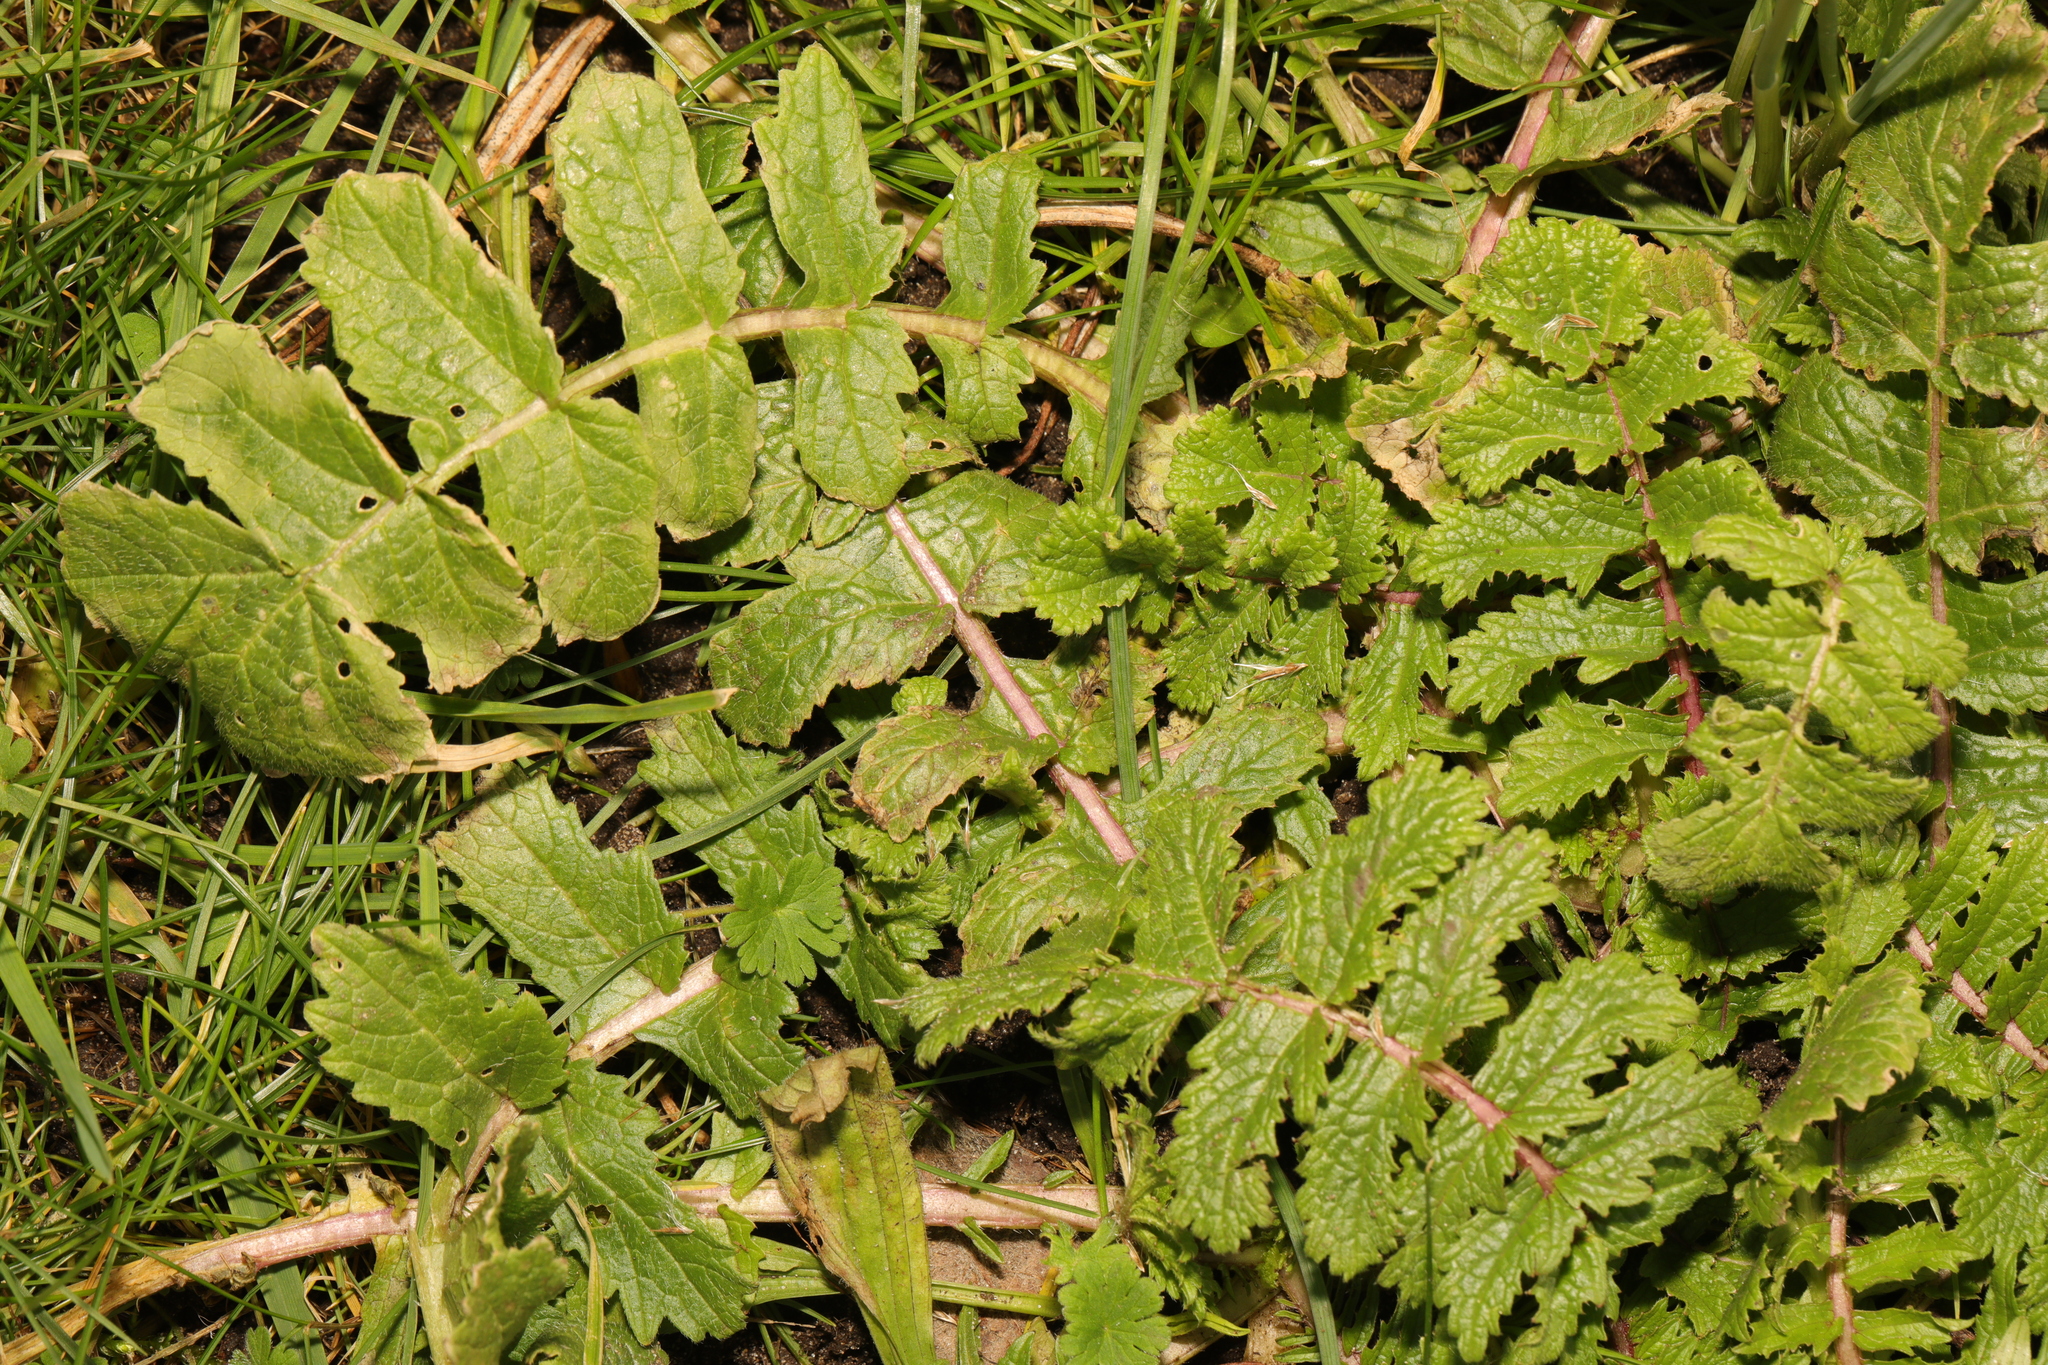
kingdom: Plantae
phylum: Tracheophyta
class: Magnoliopsida
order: Brassicales
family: Brassicaceae
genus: Raphanus
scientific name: Raphanus raphanistrum
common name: Wild radish
